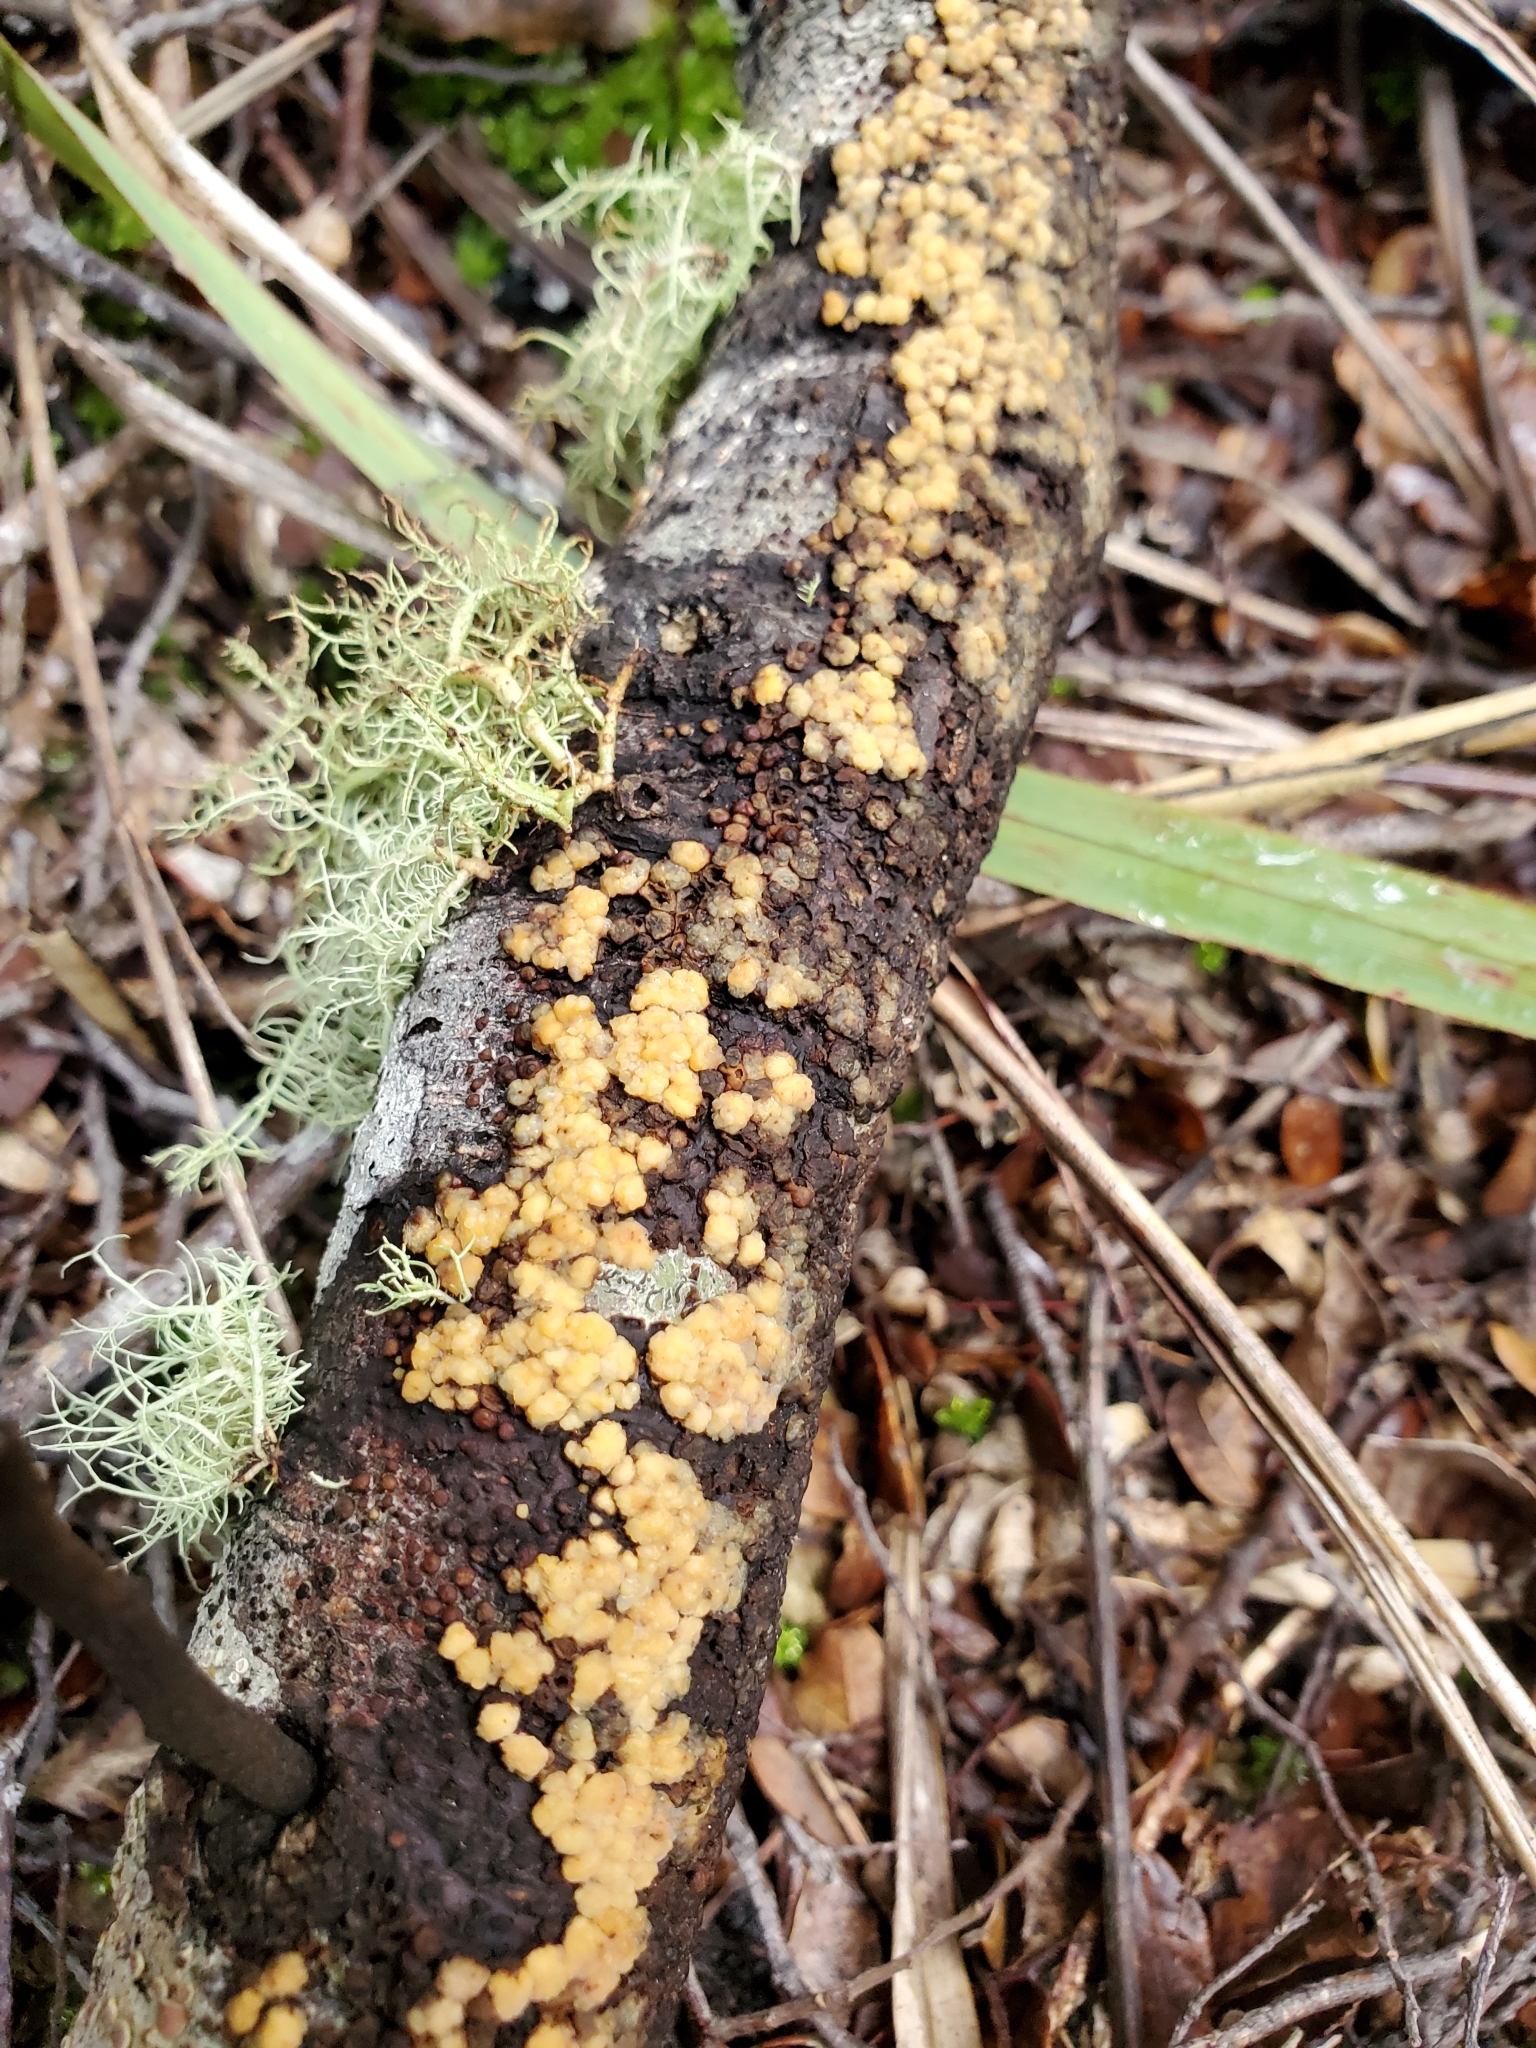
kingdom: Fungi
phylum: Basidiomycota
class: Agaricomycetes
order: Russulales
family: Stereaceae
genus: Aleurodiscus
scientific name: Aleurodiscus berggrenii
